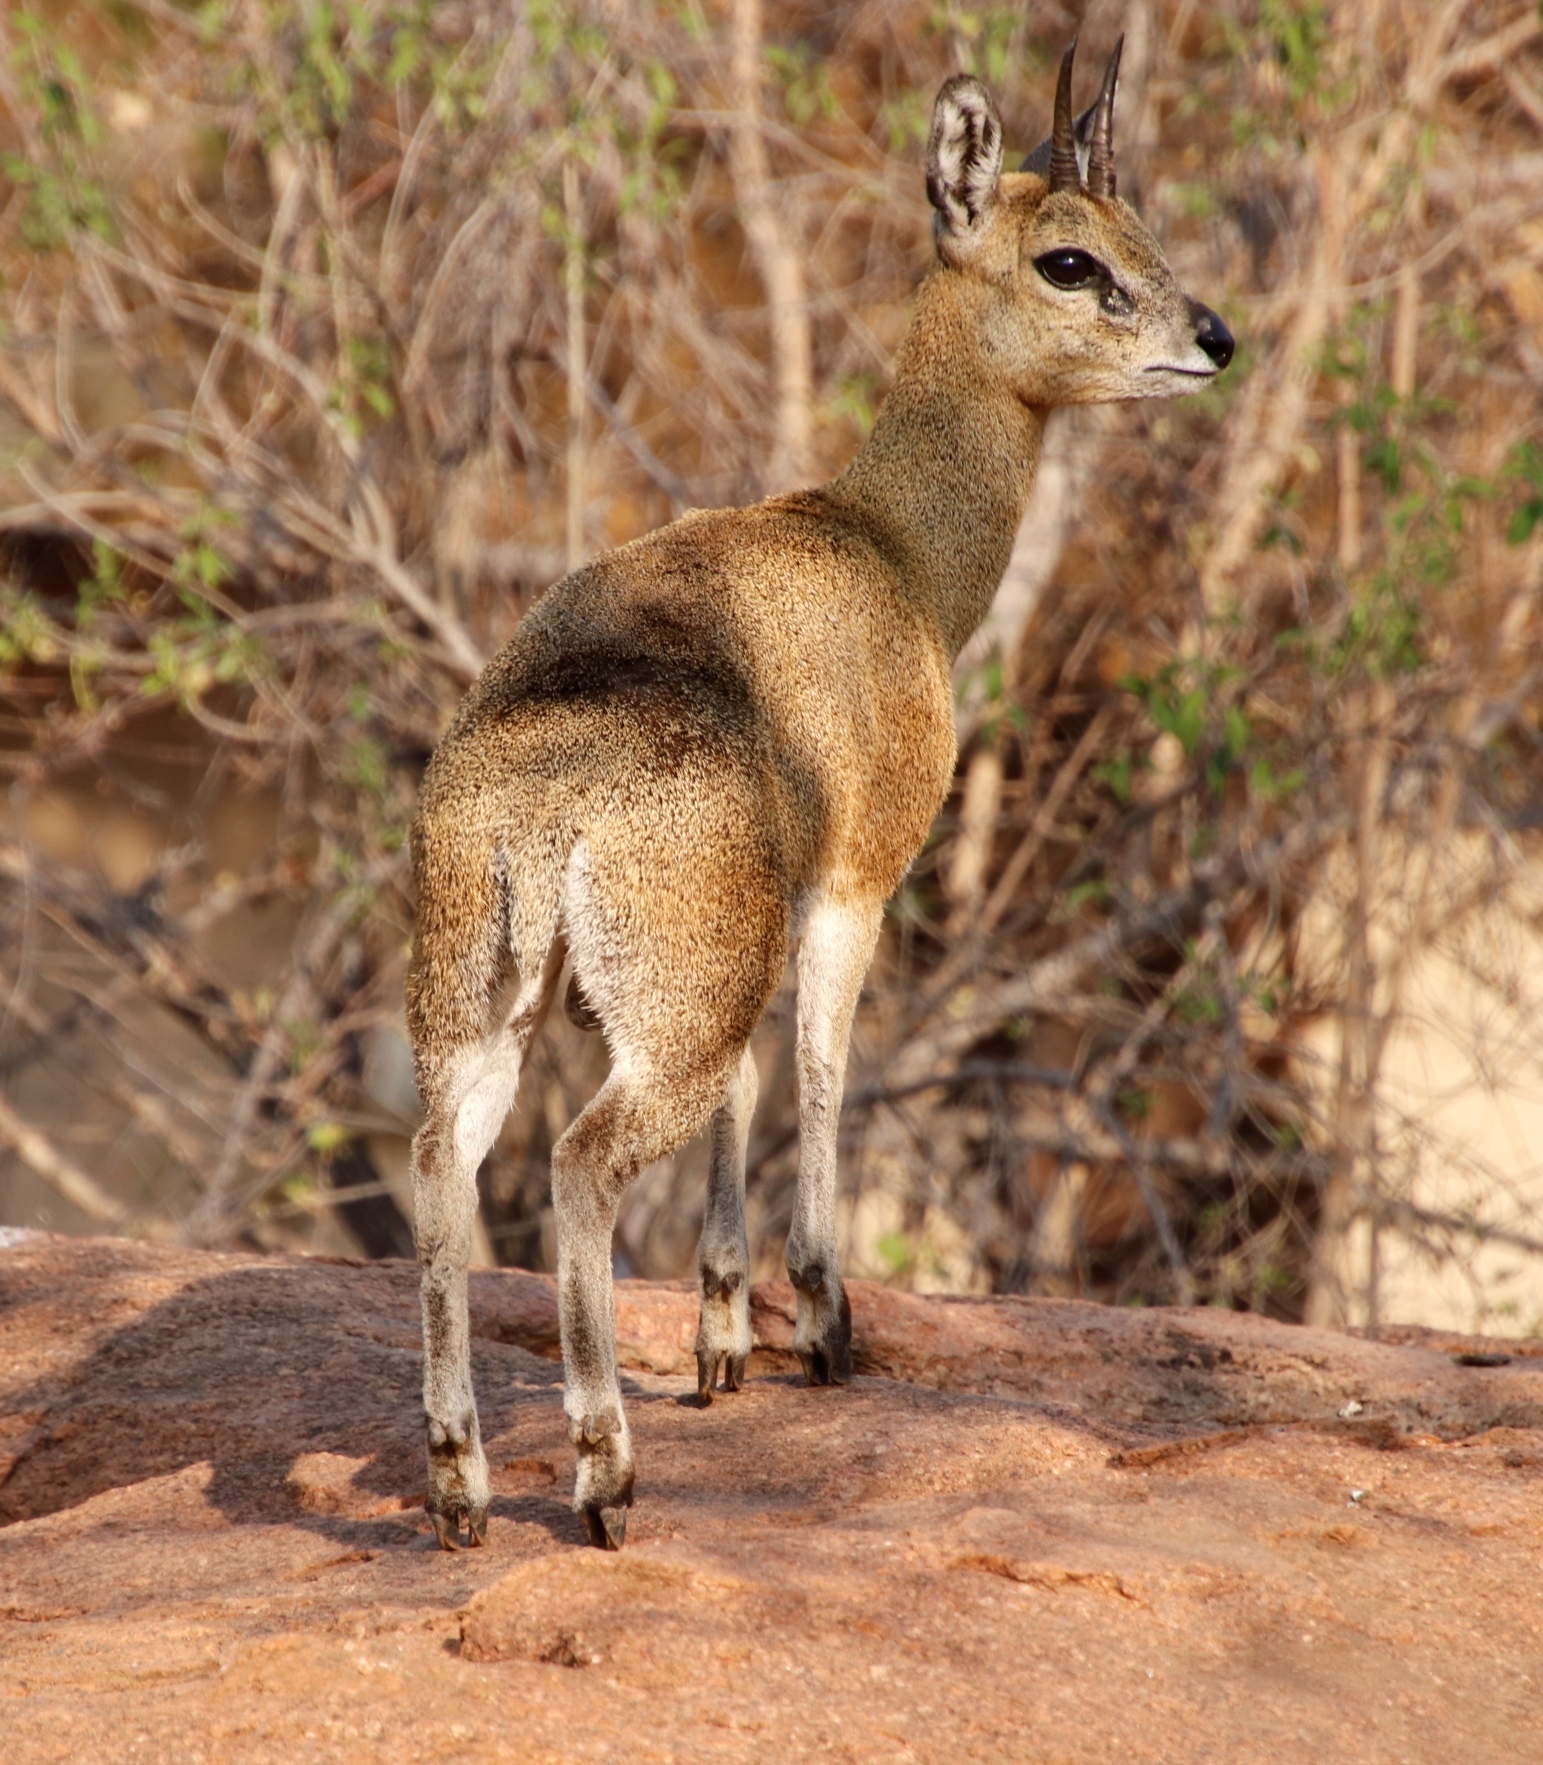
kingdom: Animalia
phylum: Chordata
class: Mammalia
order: Artiodactyla
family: Bovidae
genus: Oreotragus
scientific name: Oreotragus oreotragus
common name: Klipspringer
